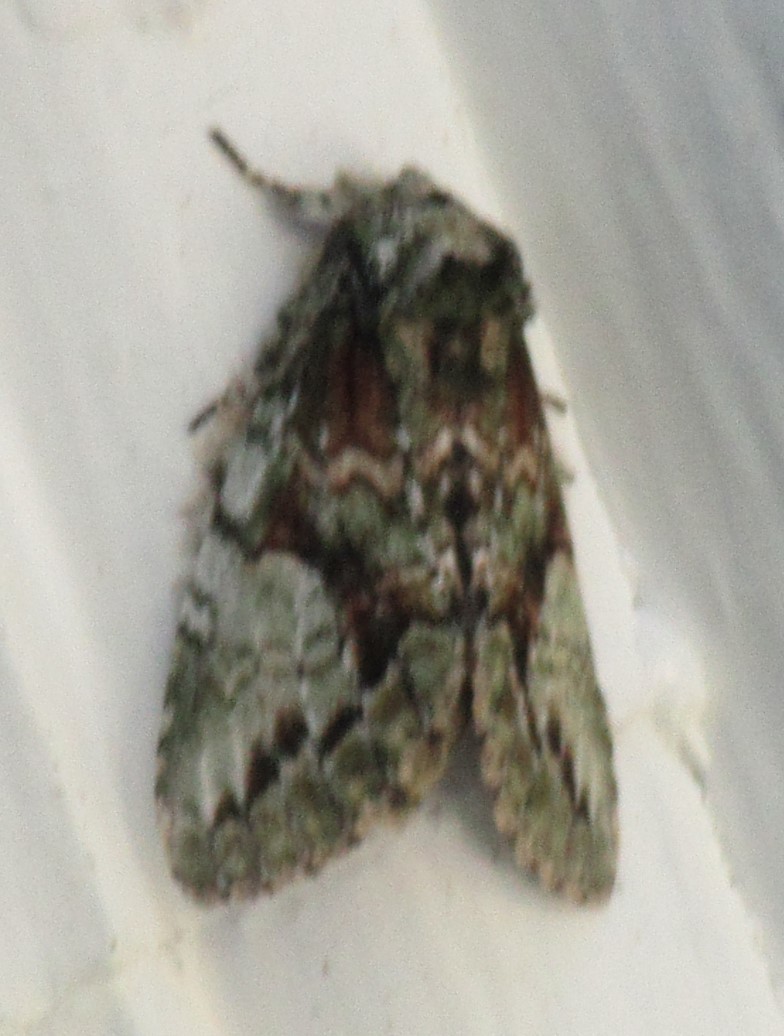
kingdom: Animalia
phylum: Arthropoda
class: Insecta
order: Lepidoptera
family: Notodontidae
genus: Heterocampa
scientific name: Heterocampa
